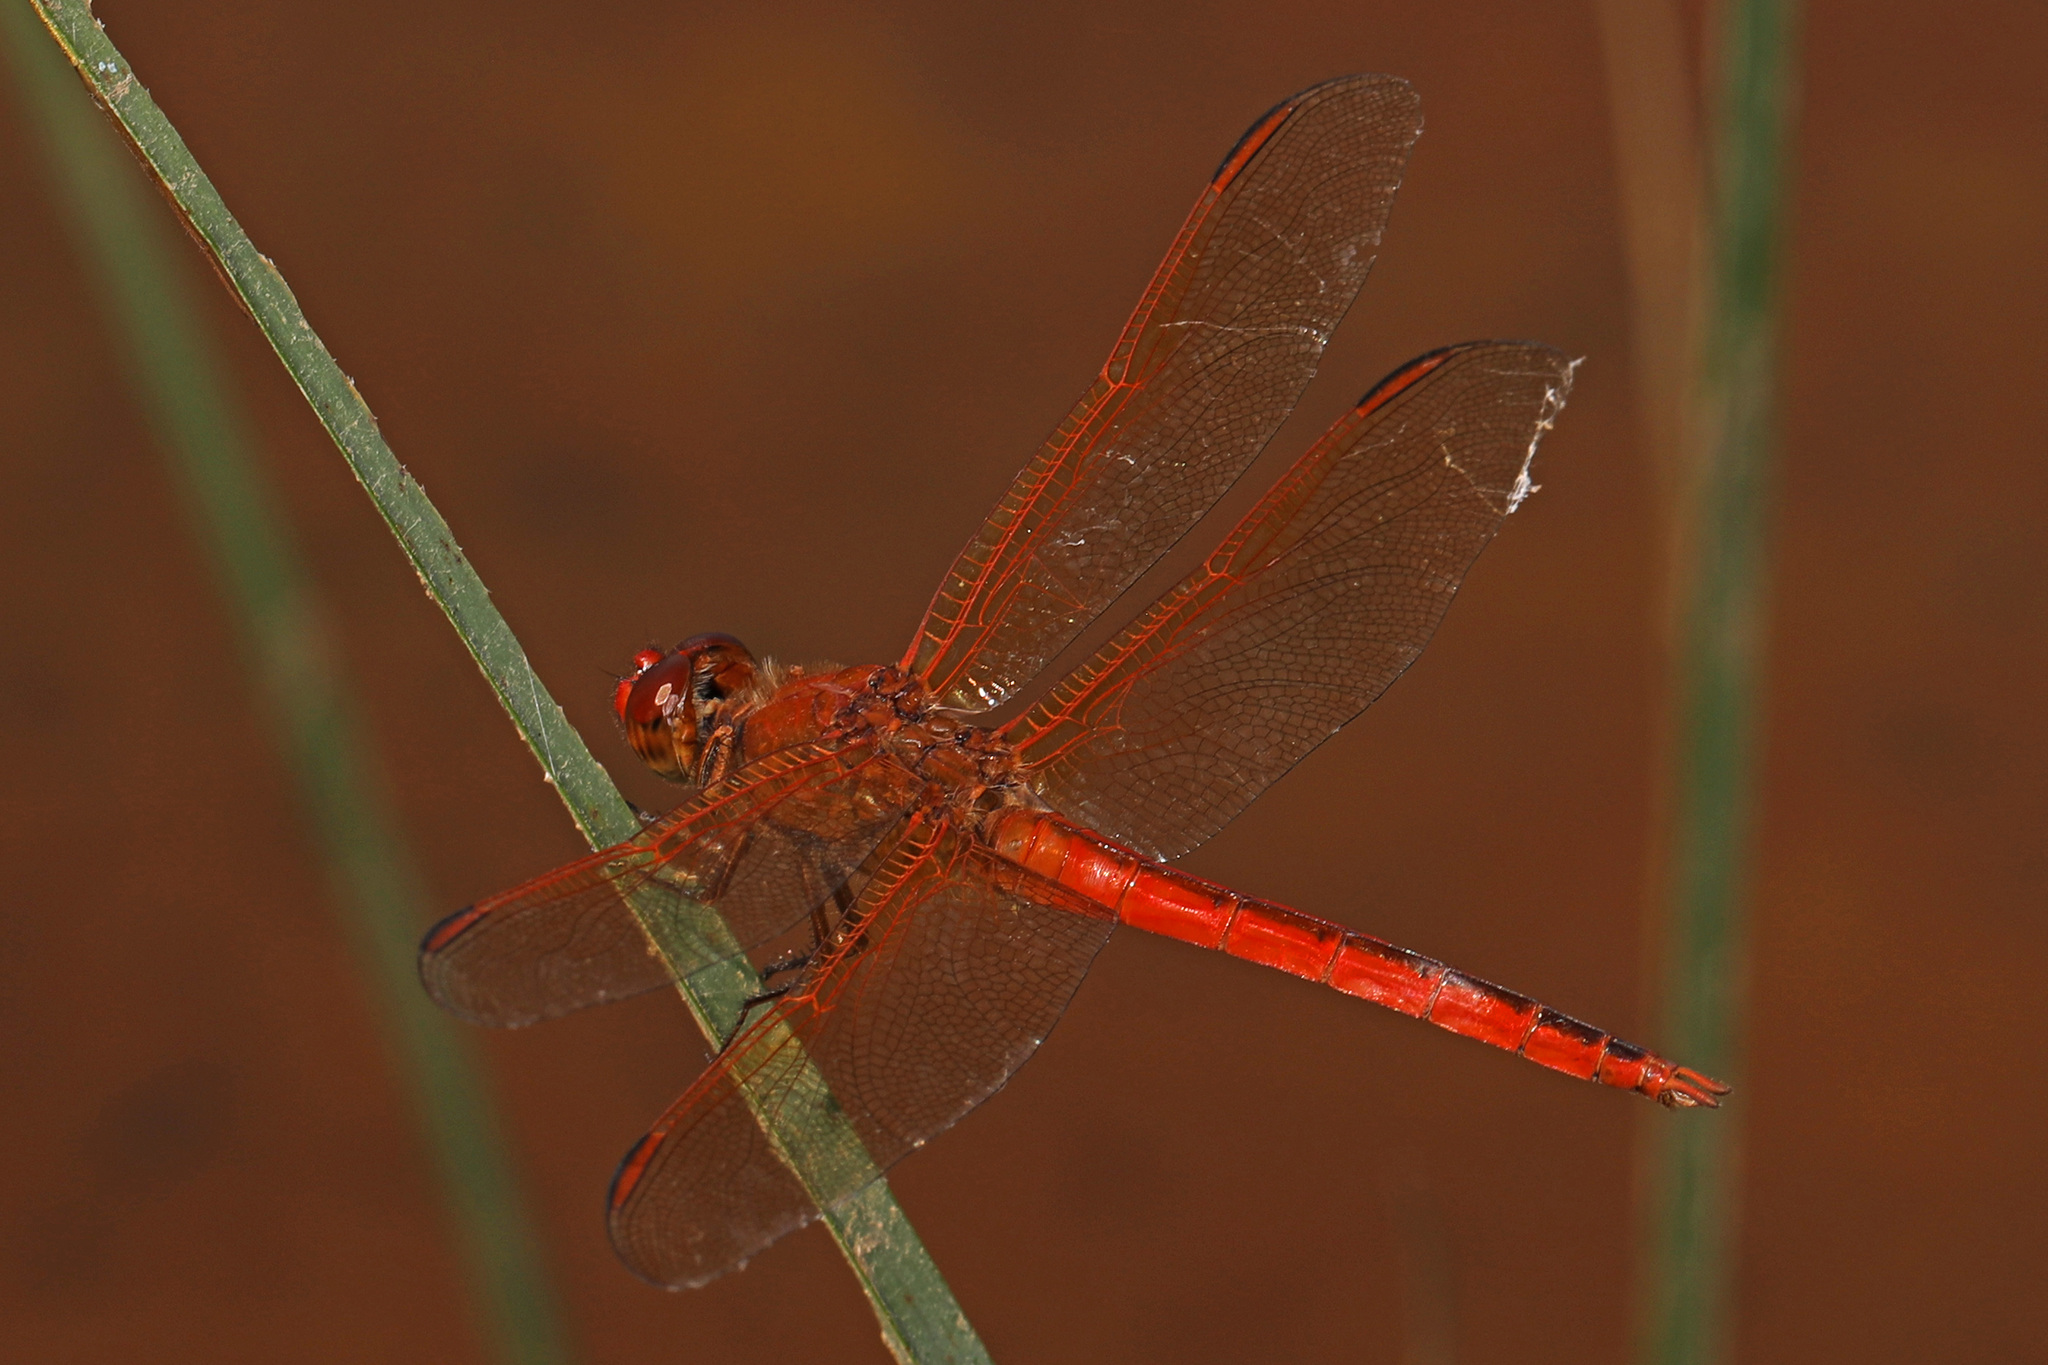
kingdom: Animalia
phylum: Arthropoda
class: Insecta
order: Odonata
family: Libellulidae
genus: Libellula
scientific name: Libellula needhami
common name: Needham's skimmer
